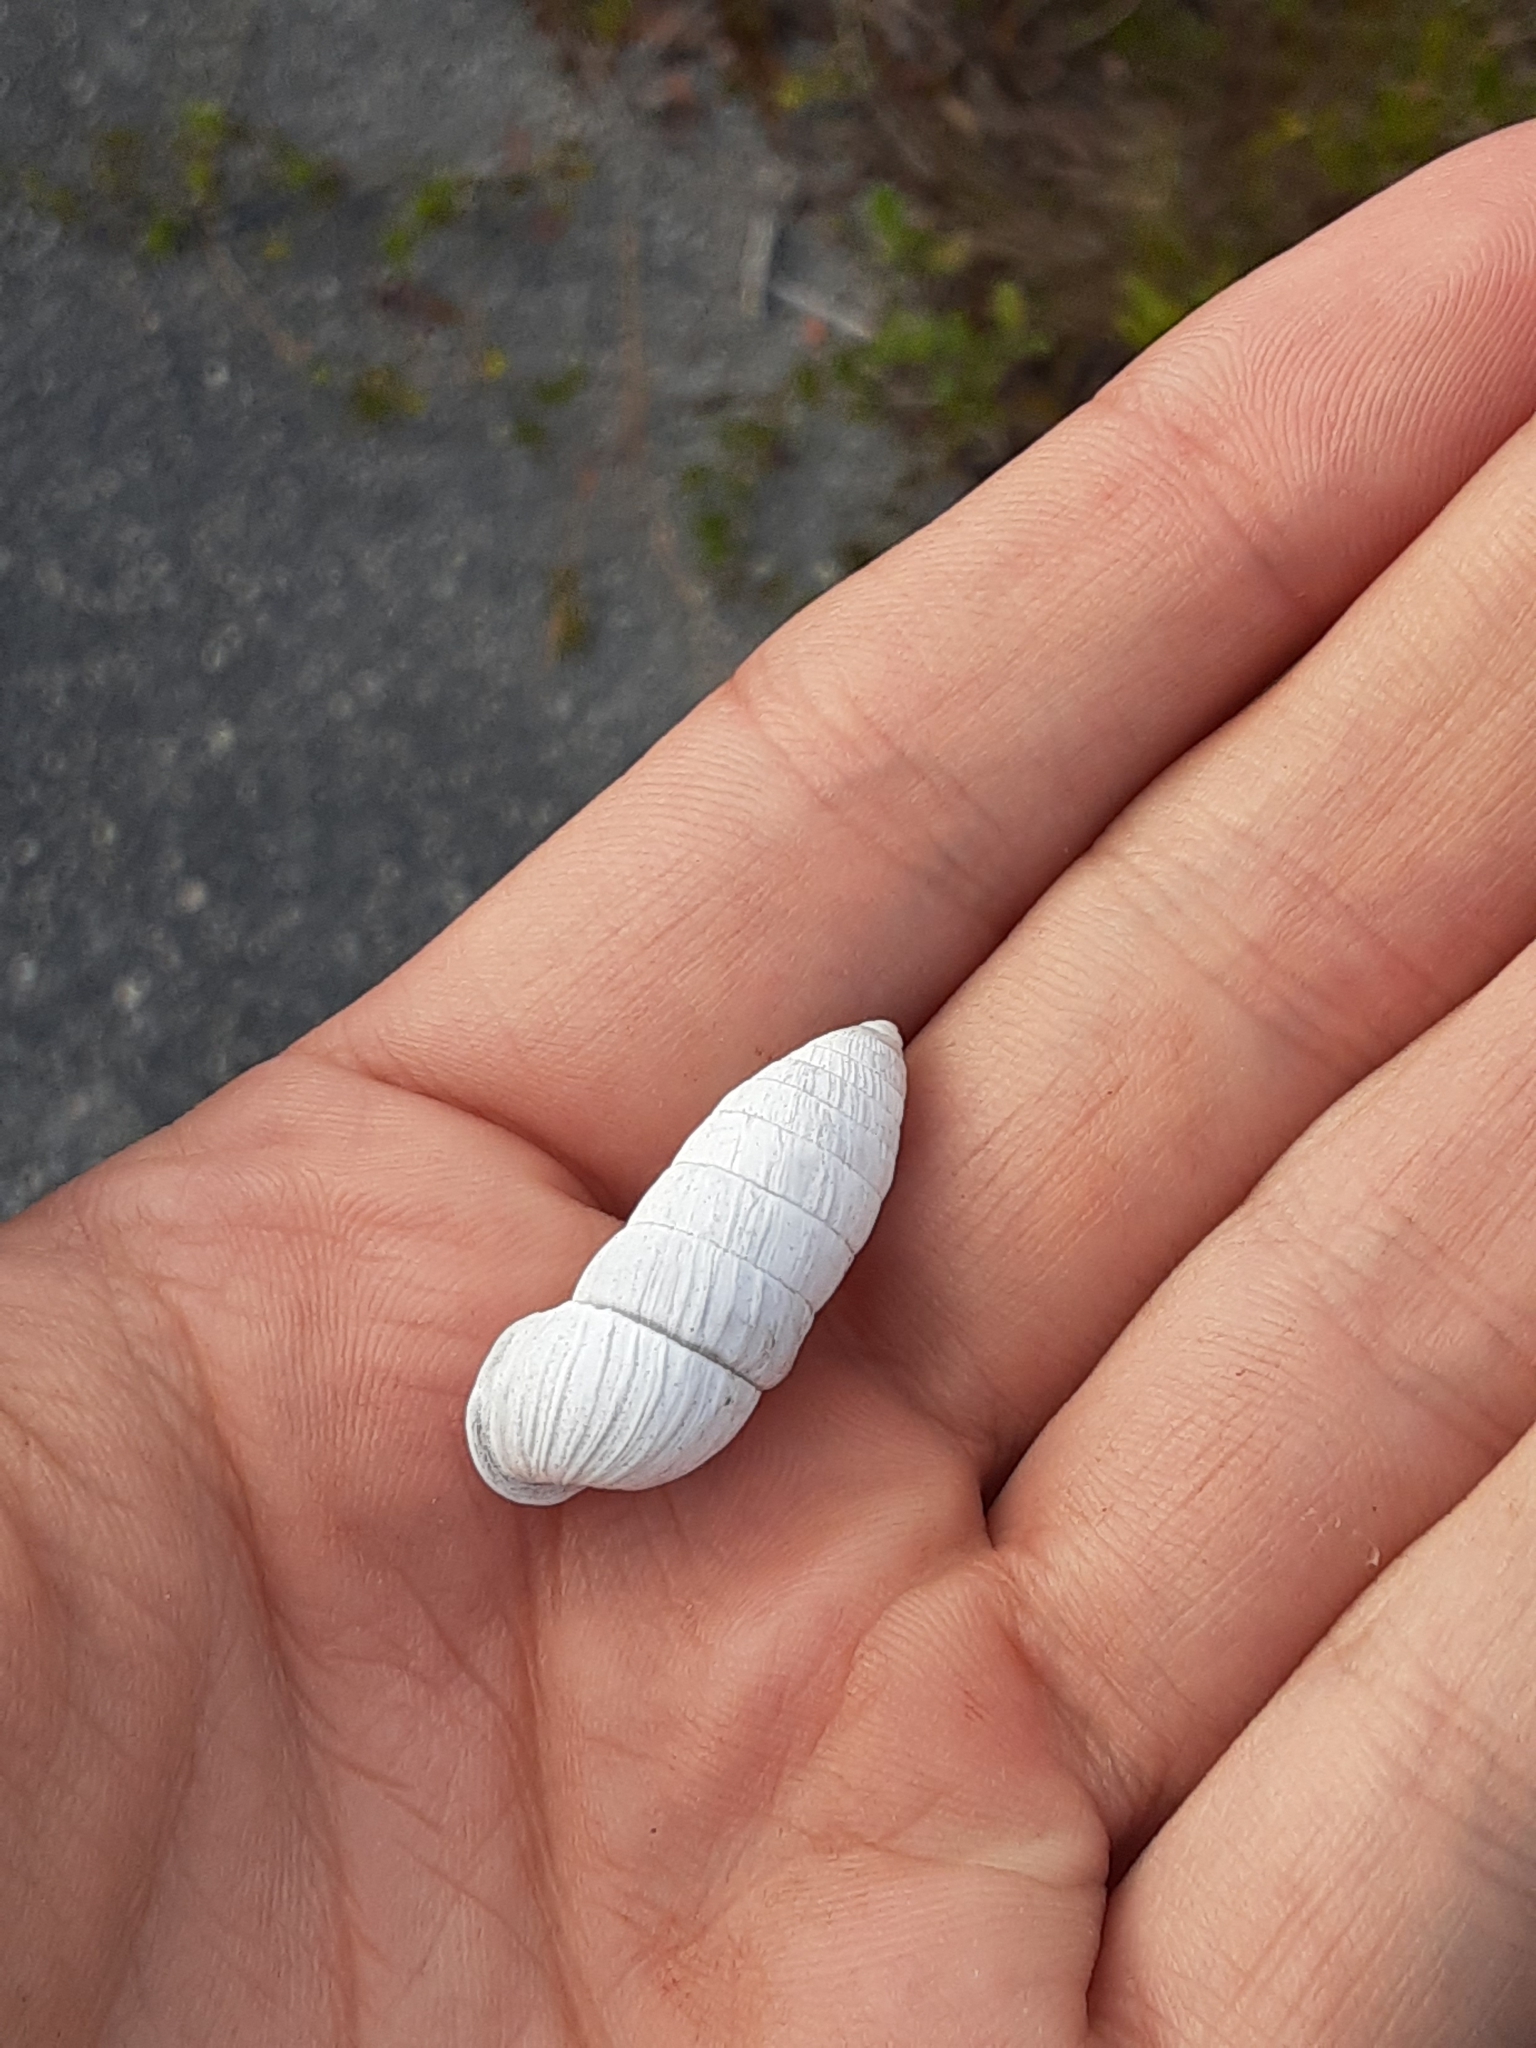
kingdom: Animalia
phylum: Mollusca
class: Gastropoda
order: Stylommatophora
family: Cerionidae
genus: Cerion
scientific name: Cerion incanum
